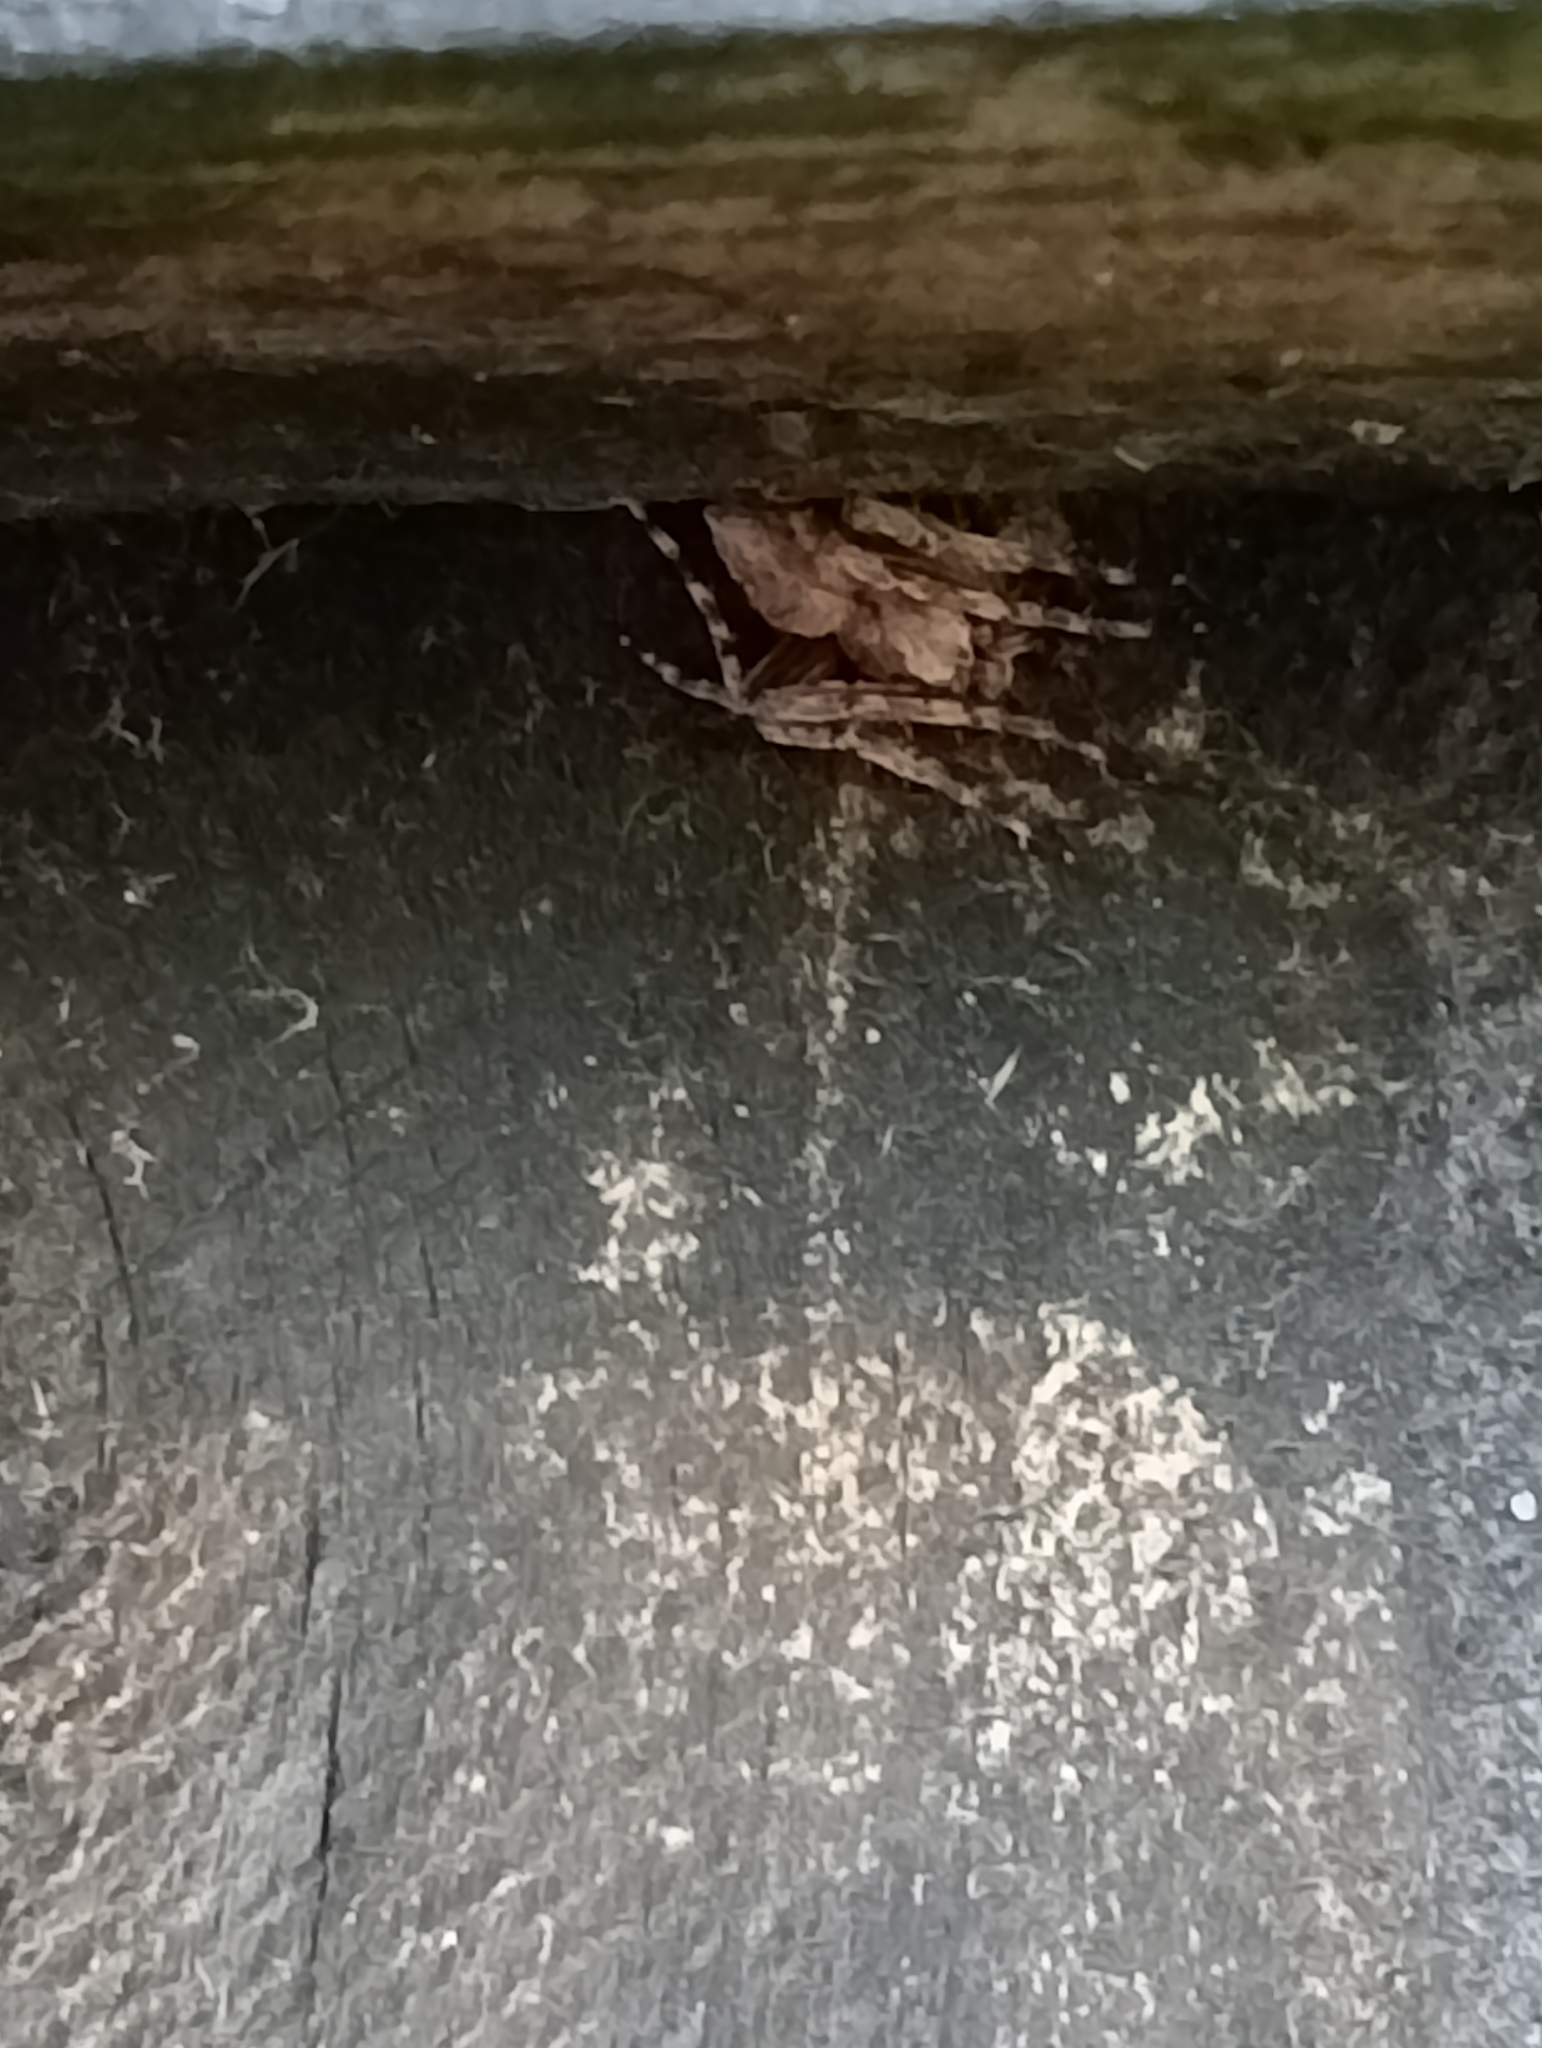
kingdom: Animalia
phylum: Arthropoda
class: Arachnida
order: Araneae
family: Araneidae
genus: Eriophora
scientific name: Eriophora pustulosa
